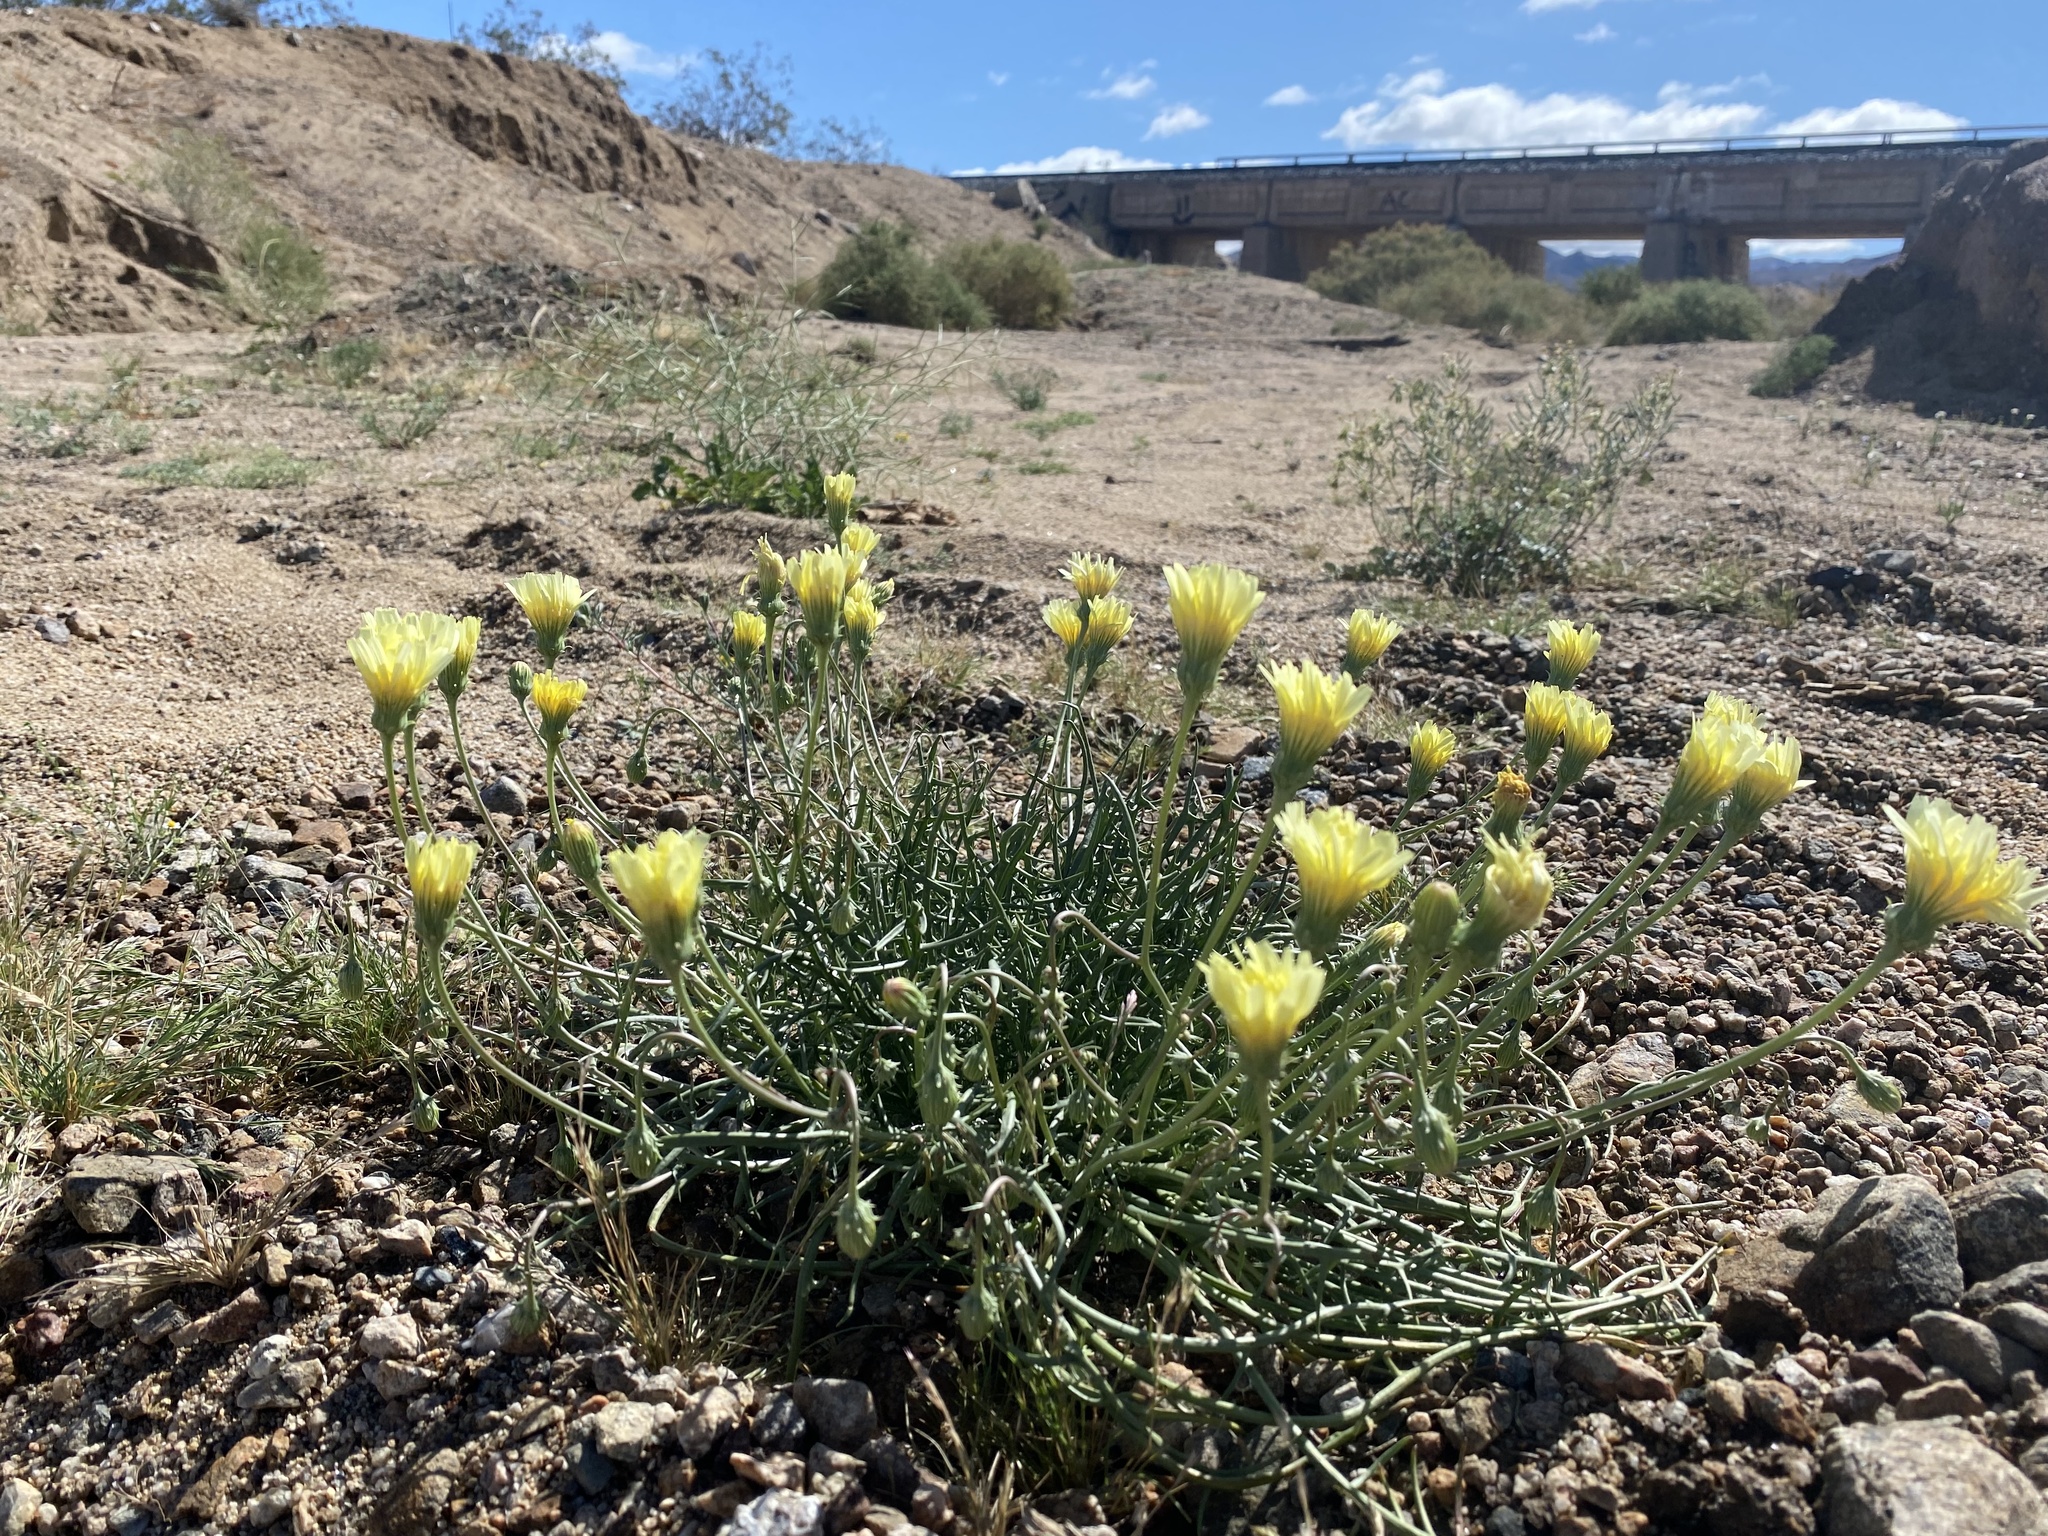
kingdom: Plantae
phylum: Tracheophyta
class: Magnoliopsida
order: Asterales
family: Asteraceae
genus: Malacothrix
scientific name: Malacothrix glabrata
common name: Smooth desert-dandelion
